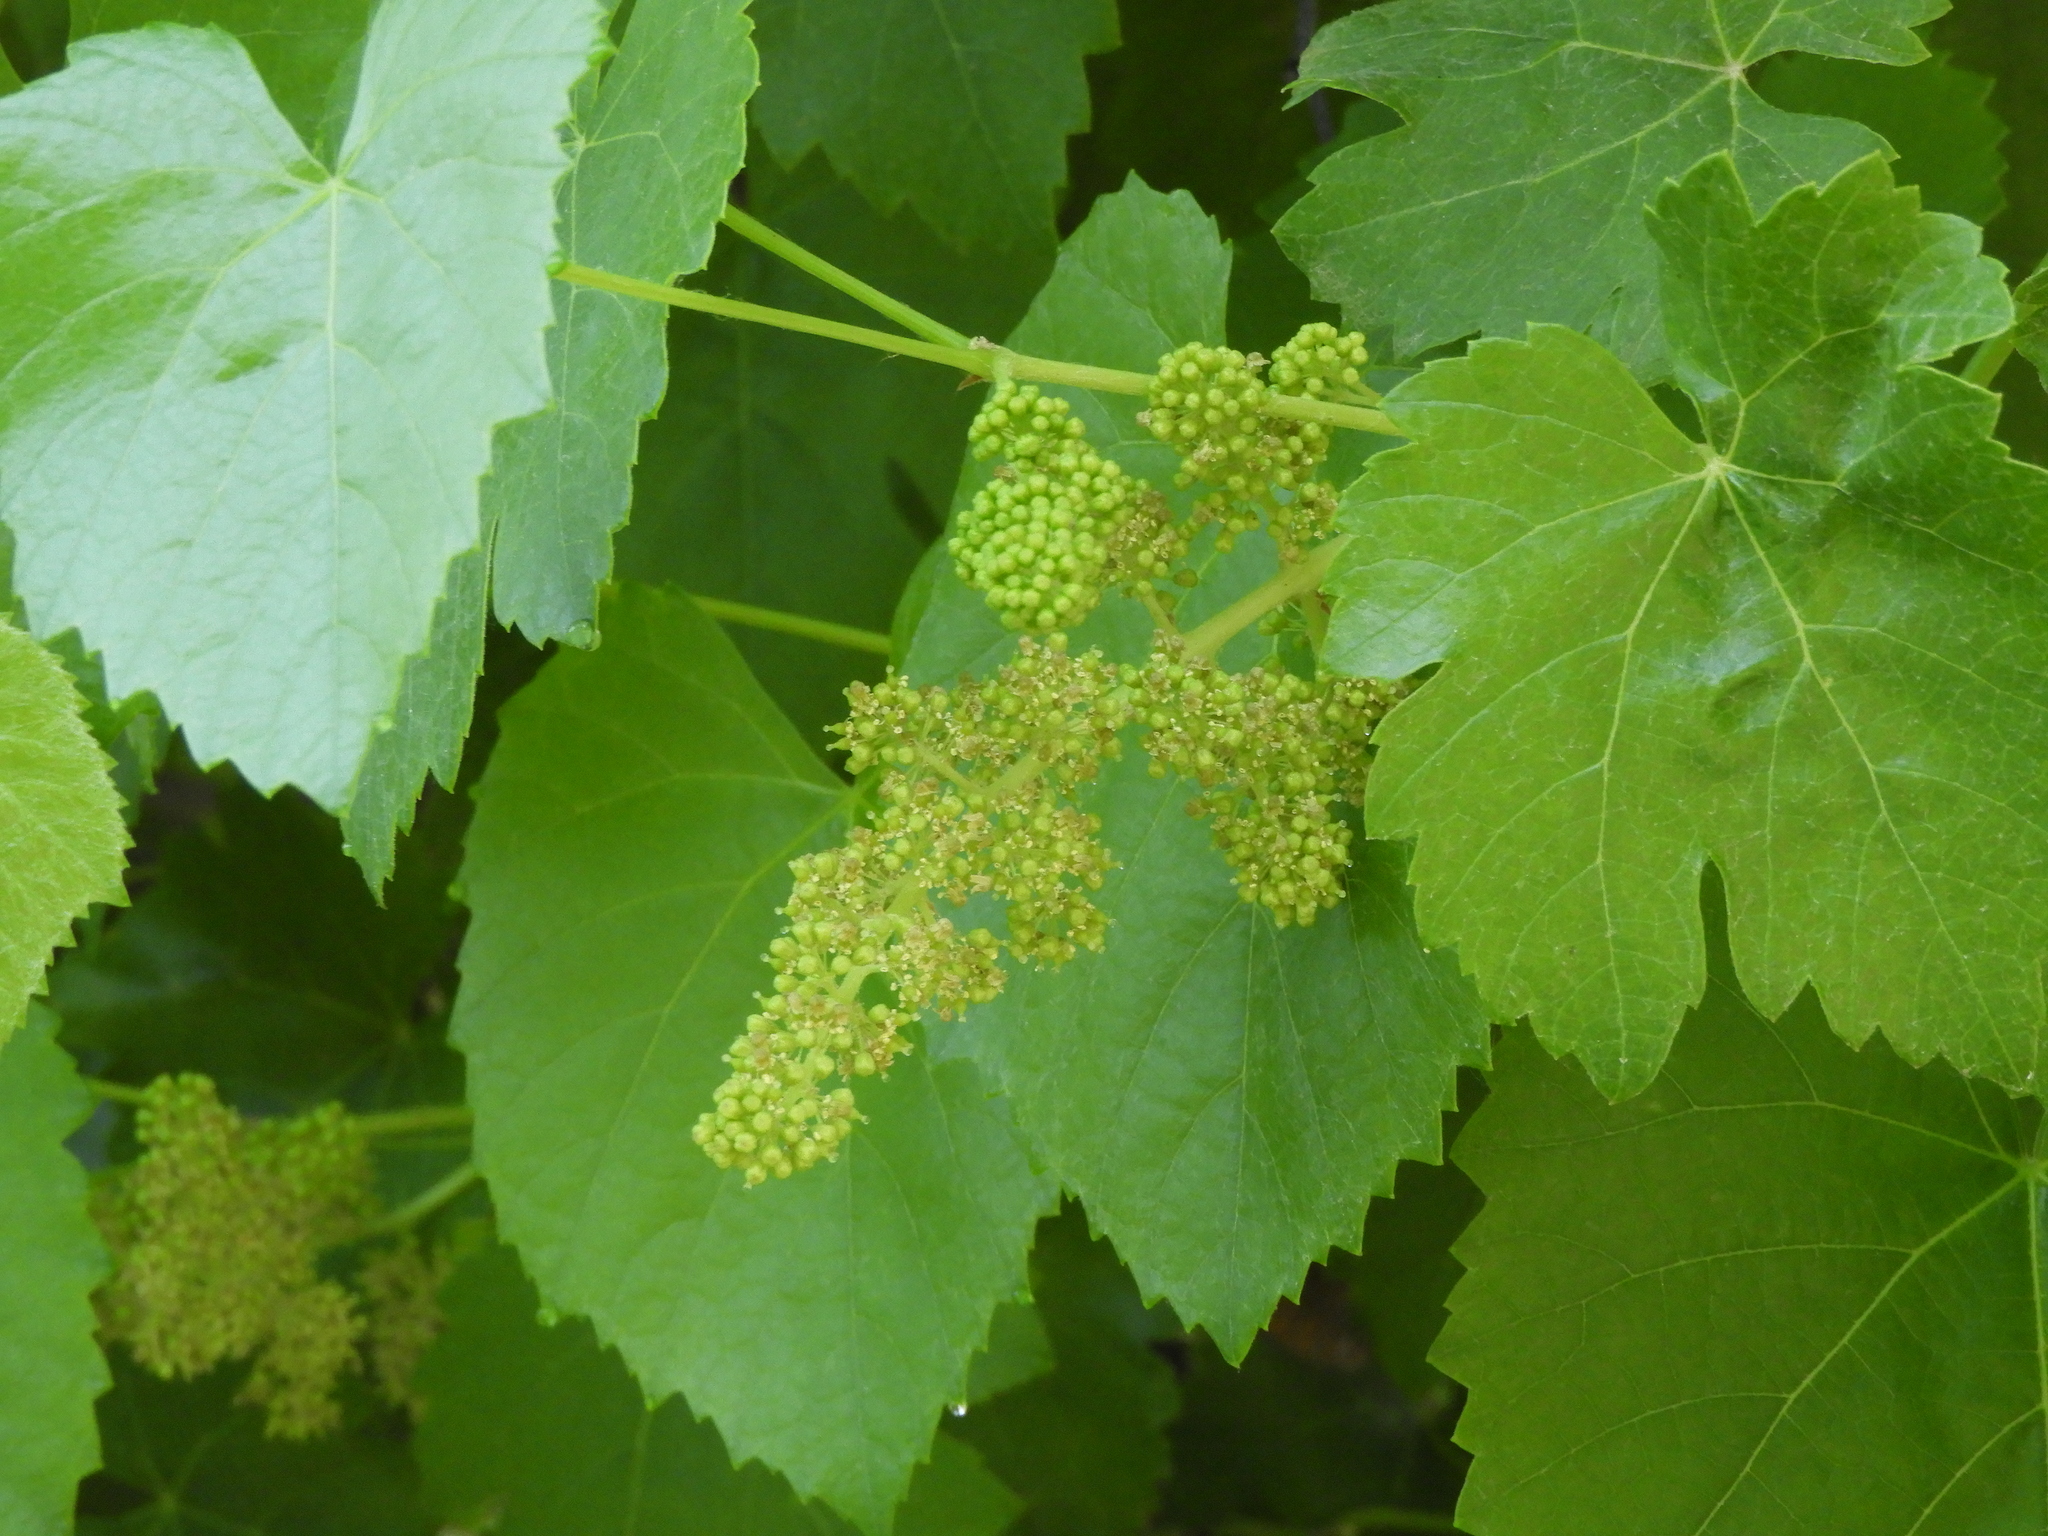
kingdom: Plantae
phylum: Tracheophyta
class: Magnoliopsida
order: Vitales
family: Vitaceae
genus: Vitis
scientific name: Vitis californica
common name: California wild grape
